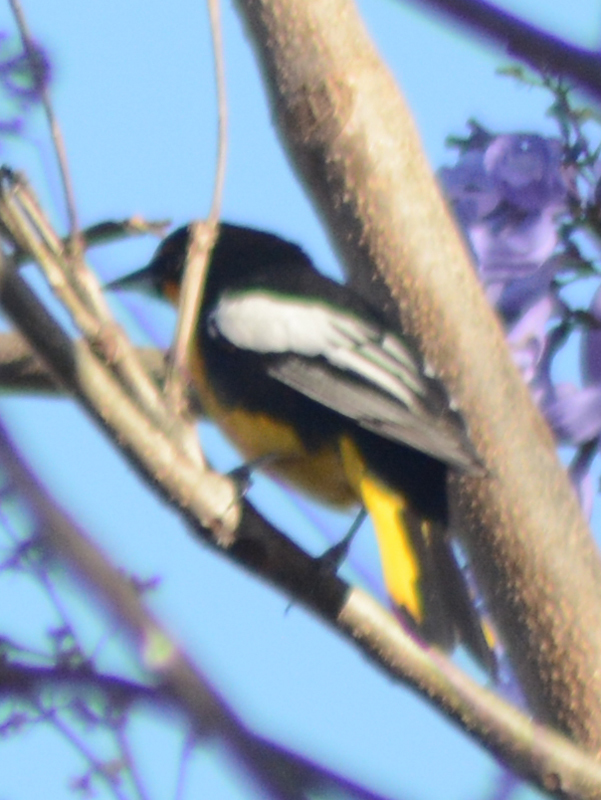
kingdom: Animalia
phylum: Chordata
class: Aves
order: Passeriformes
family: Icteridae
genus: Icterus
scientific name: Icterus abeillei
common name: Black-backed oriole
